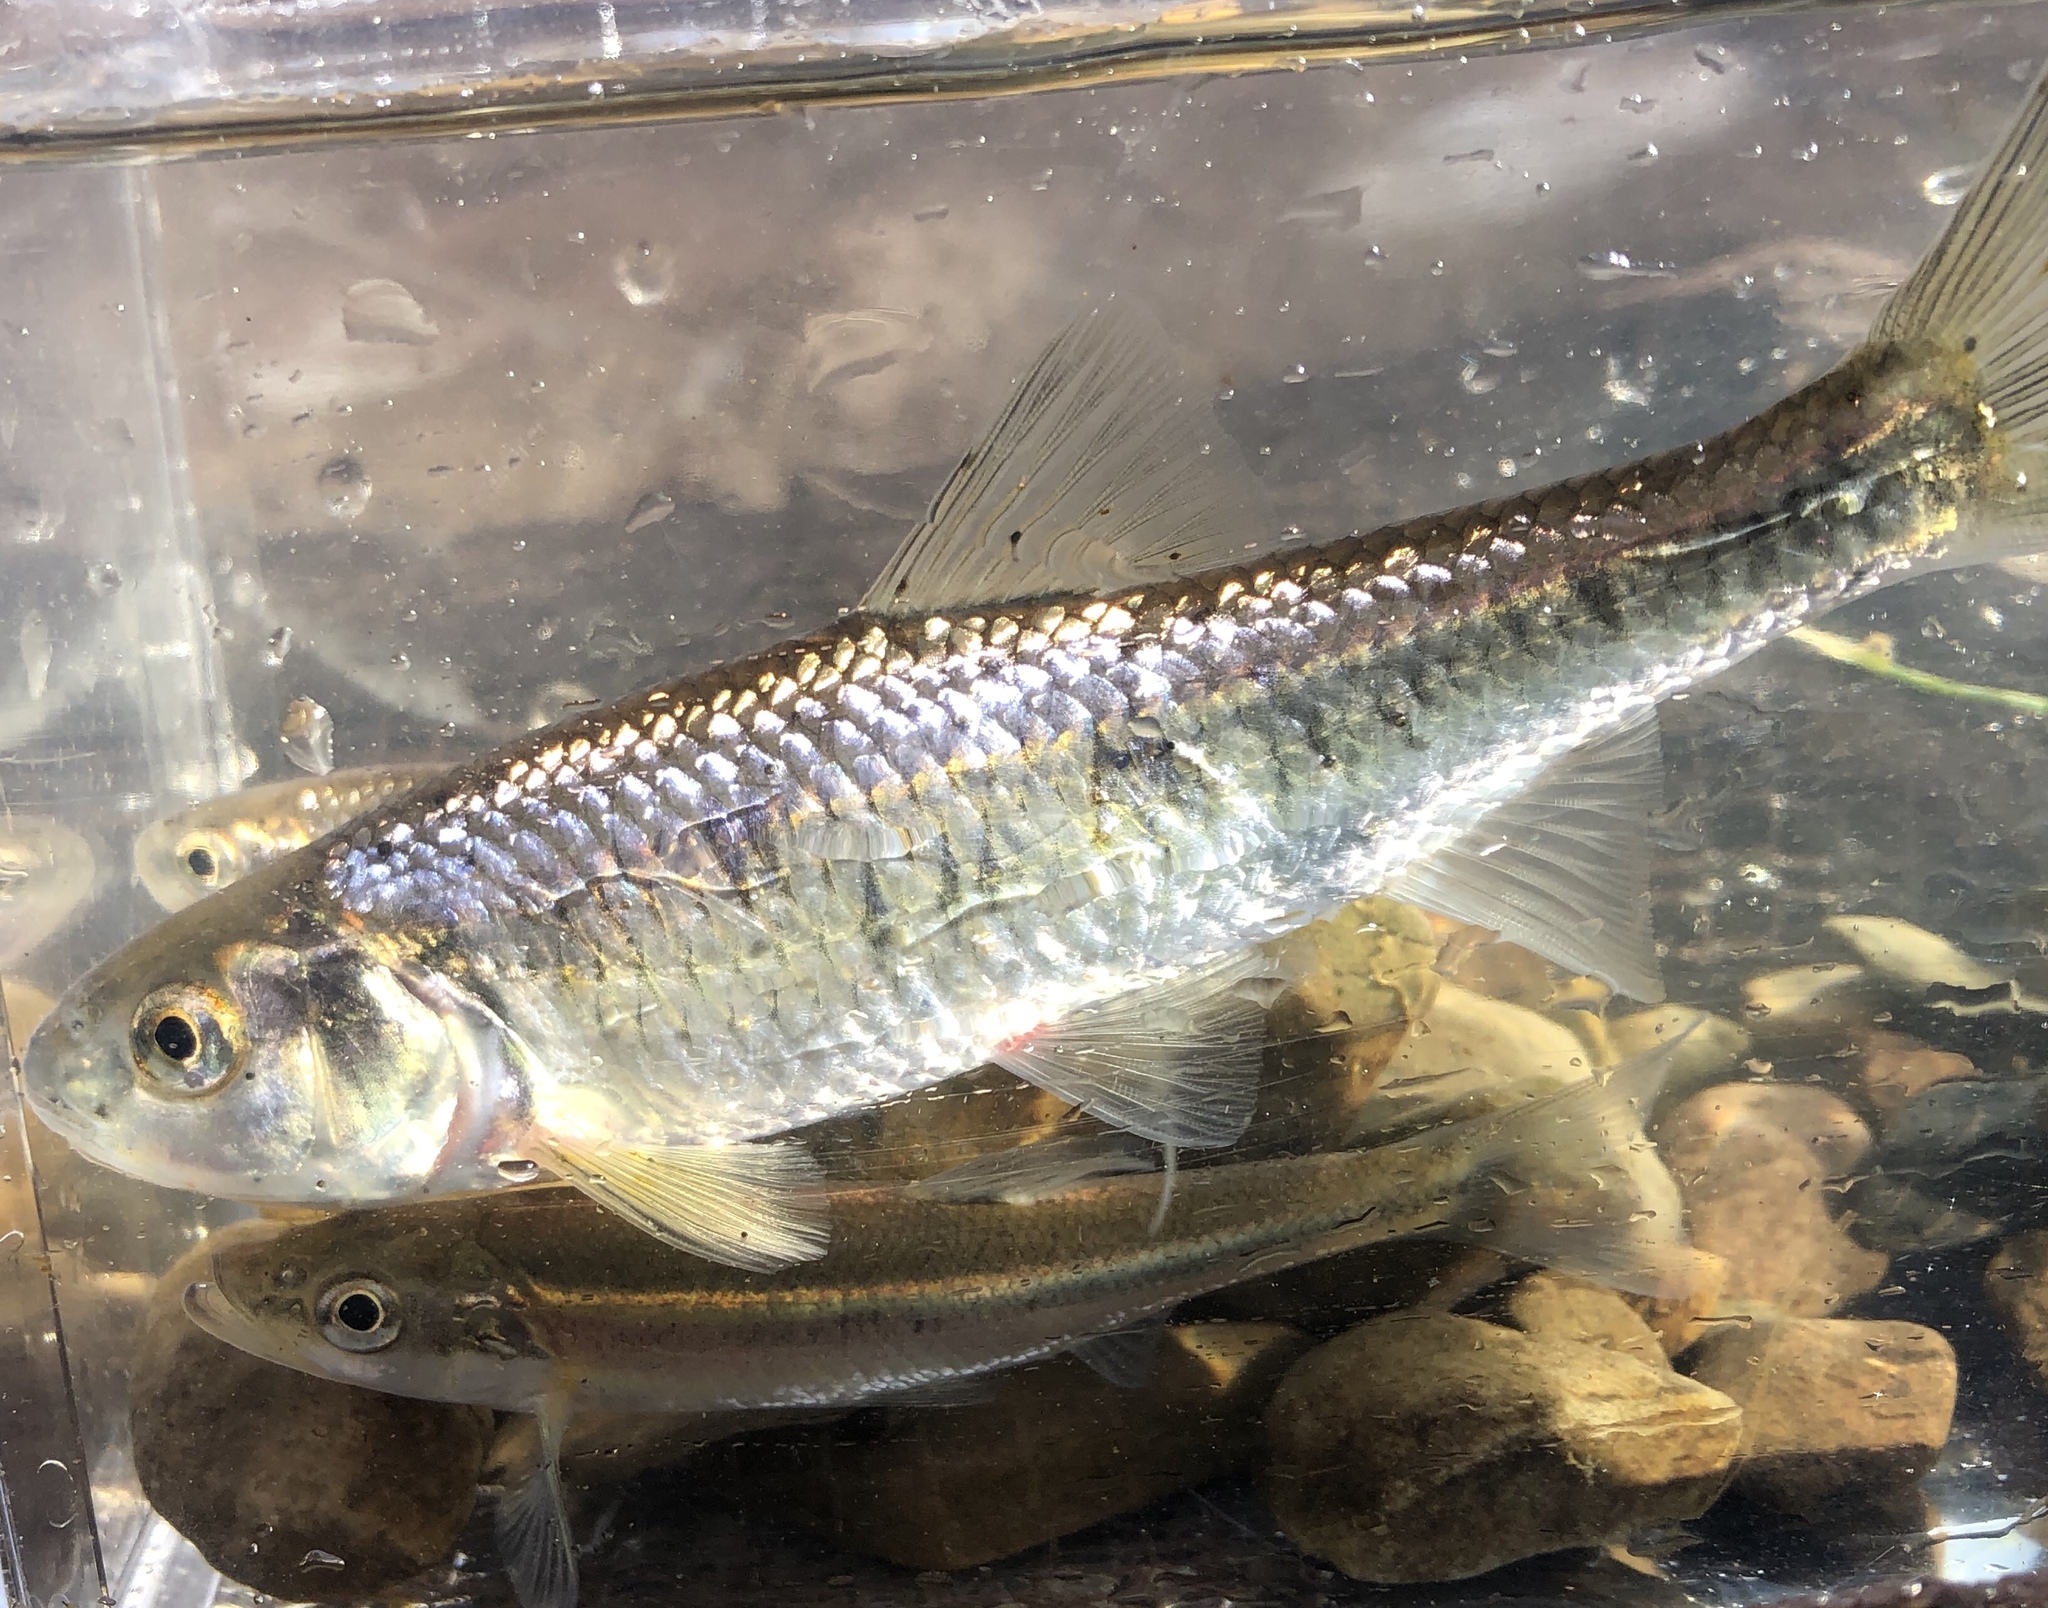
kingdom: Animalia
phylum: Chordata
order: Cypriniformes
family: Cyprinidae
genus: Luxilus
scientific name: Luxilus cornutus
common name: Common shiner
